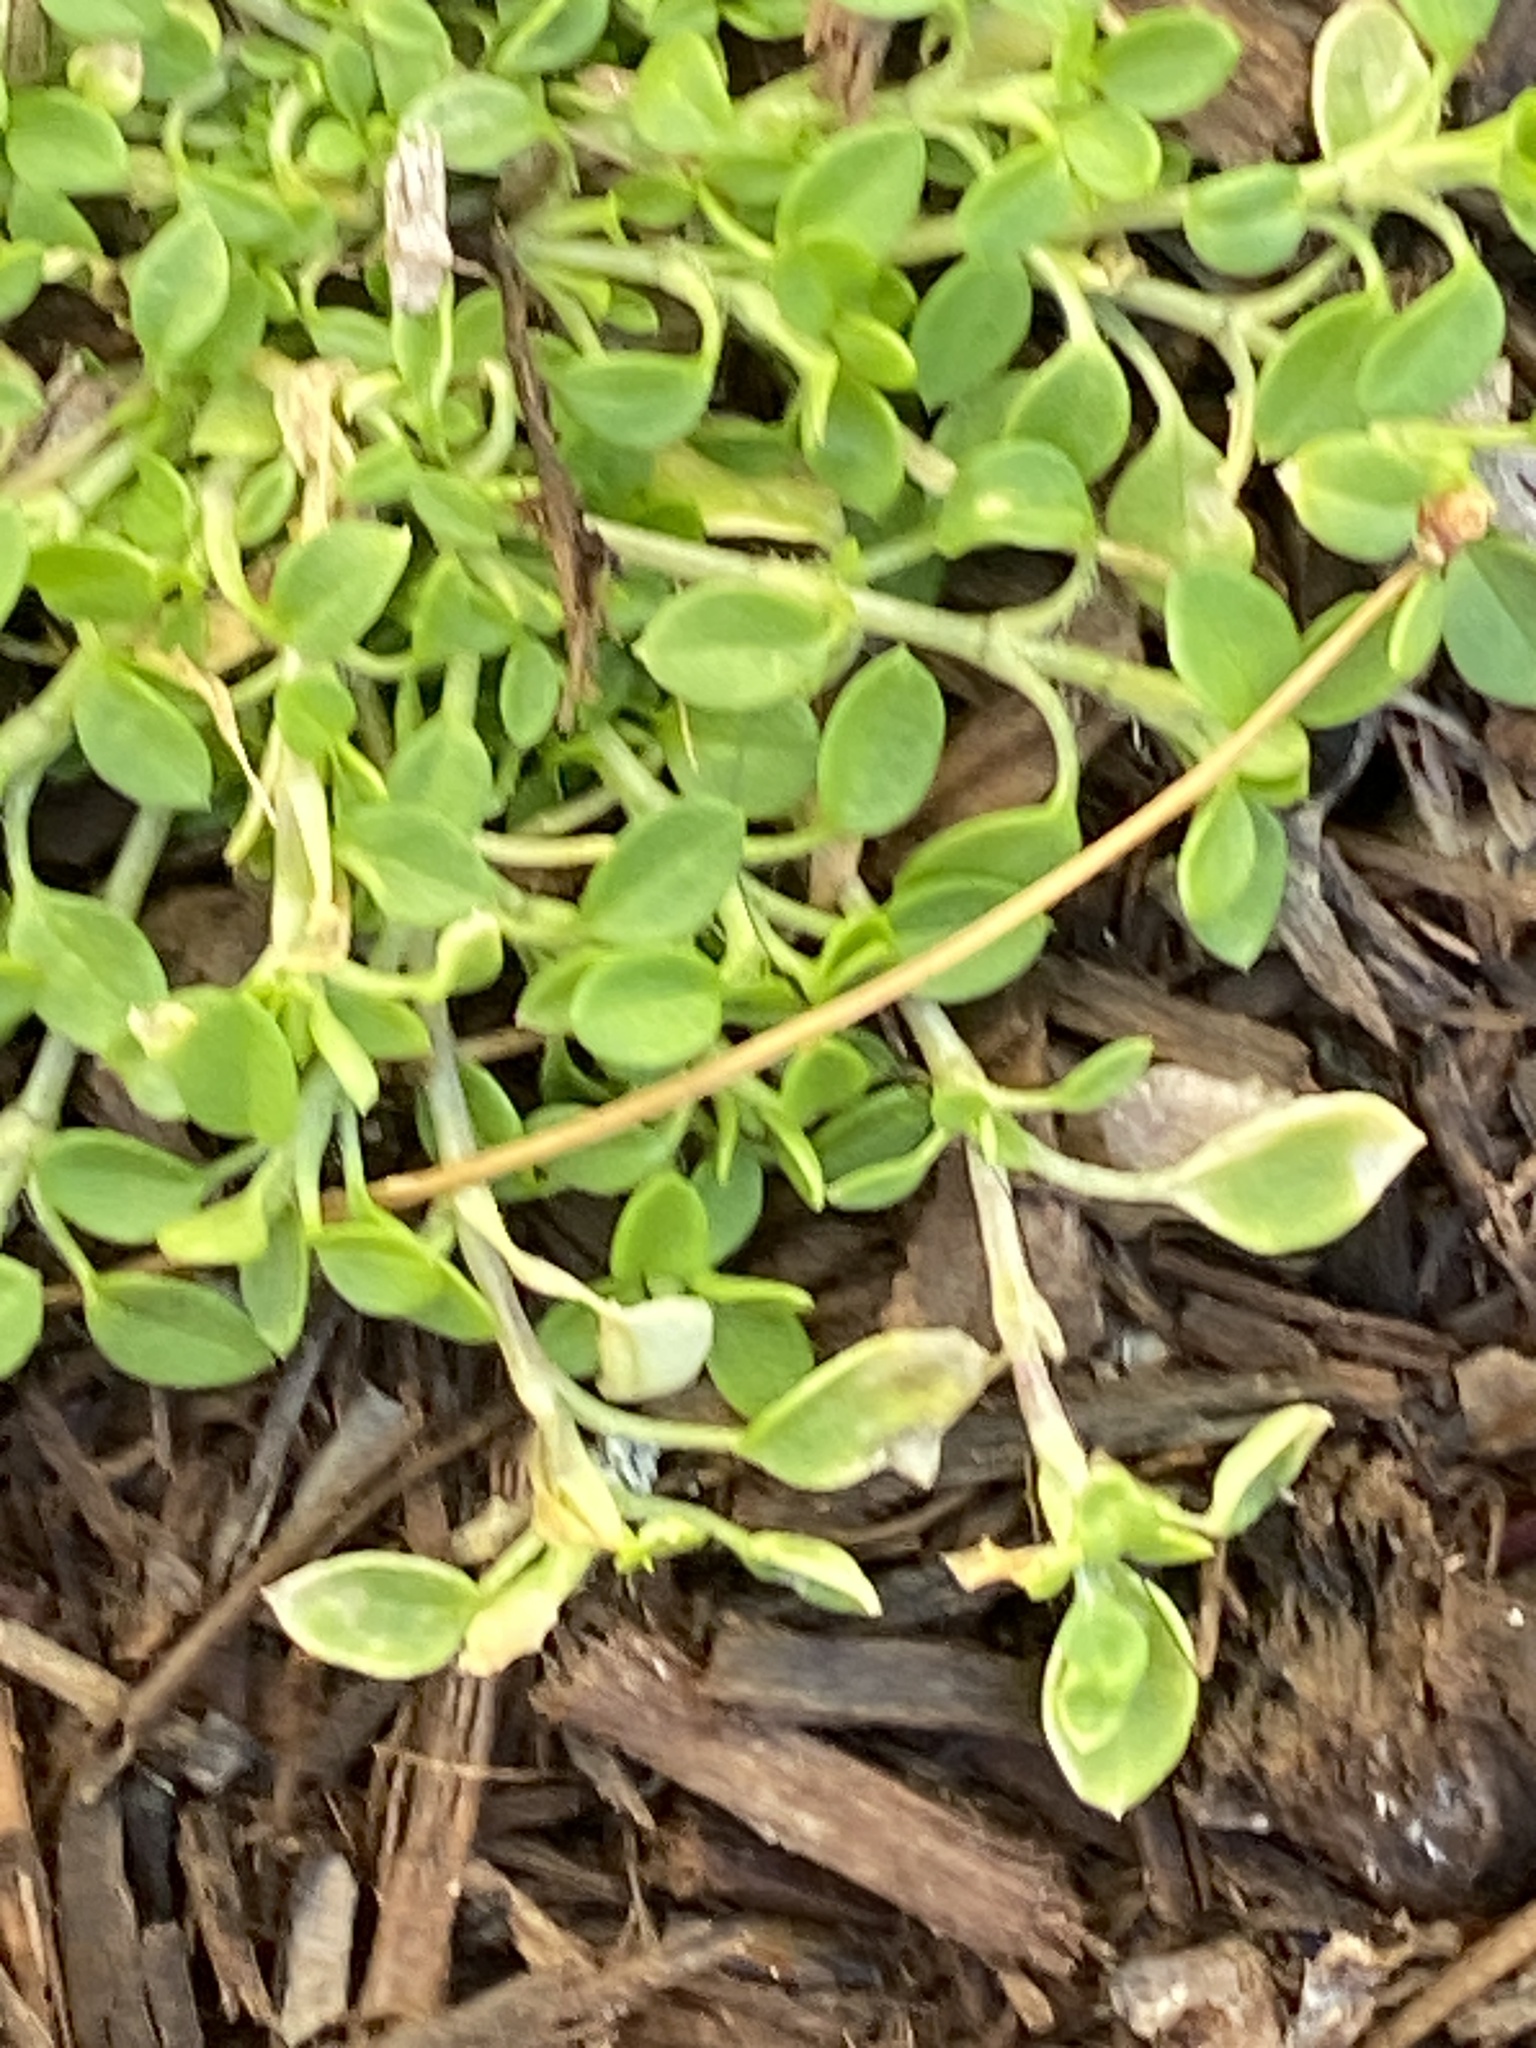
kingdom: Plantae
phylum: Tracheophyta
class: Magnoliopsida
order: Caryophyllales
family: Caryophyllaceae
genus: Stellaria
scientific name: Stellaria media
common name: Common chickweed
